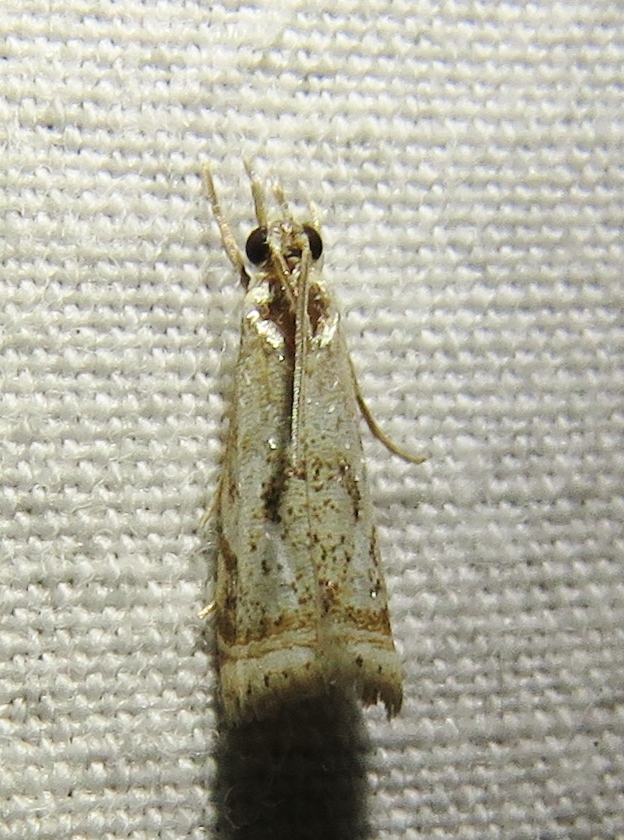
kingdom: Animalia
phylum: Arthropoda
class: Insecta
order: Lepidoptera
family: Crambidae
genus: Microcrambus
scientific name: Microcrambus elegans
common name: Elegant grass-veneer
